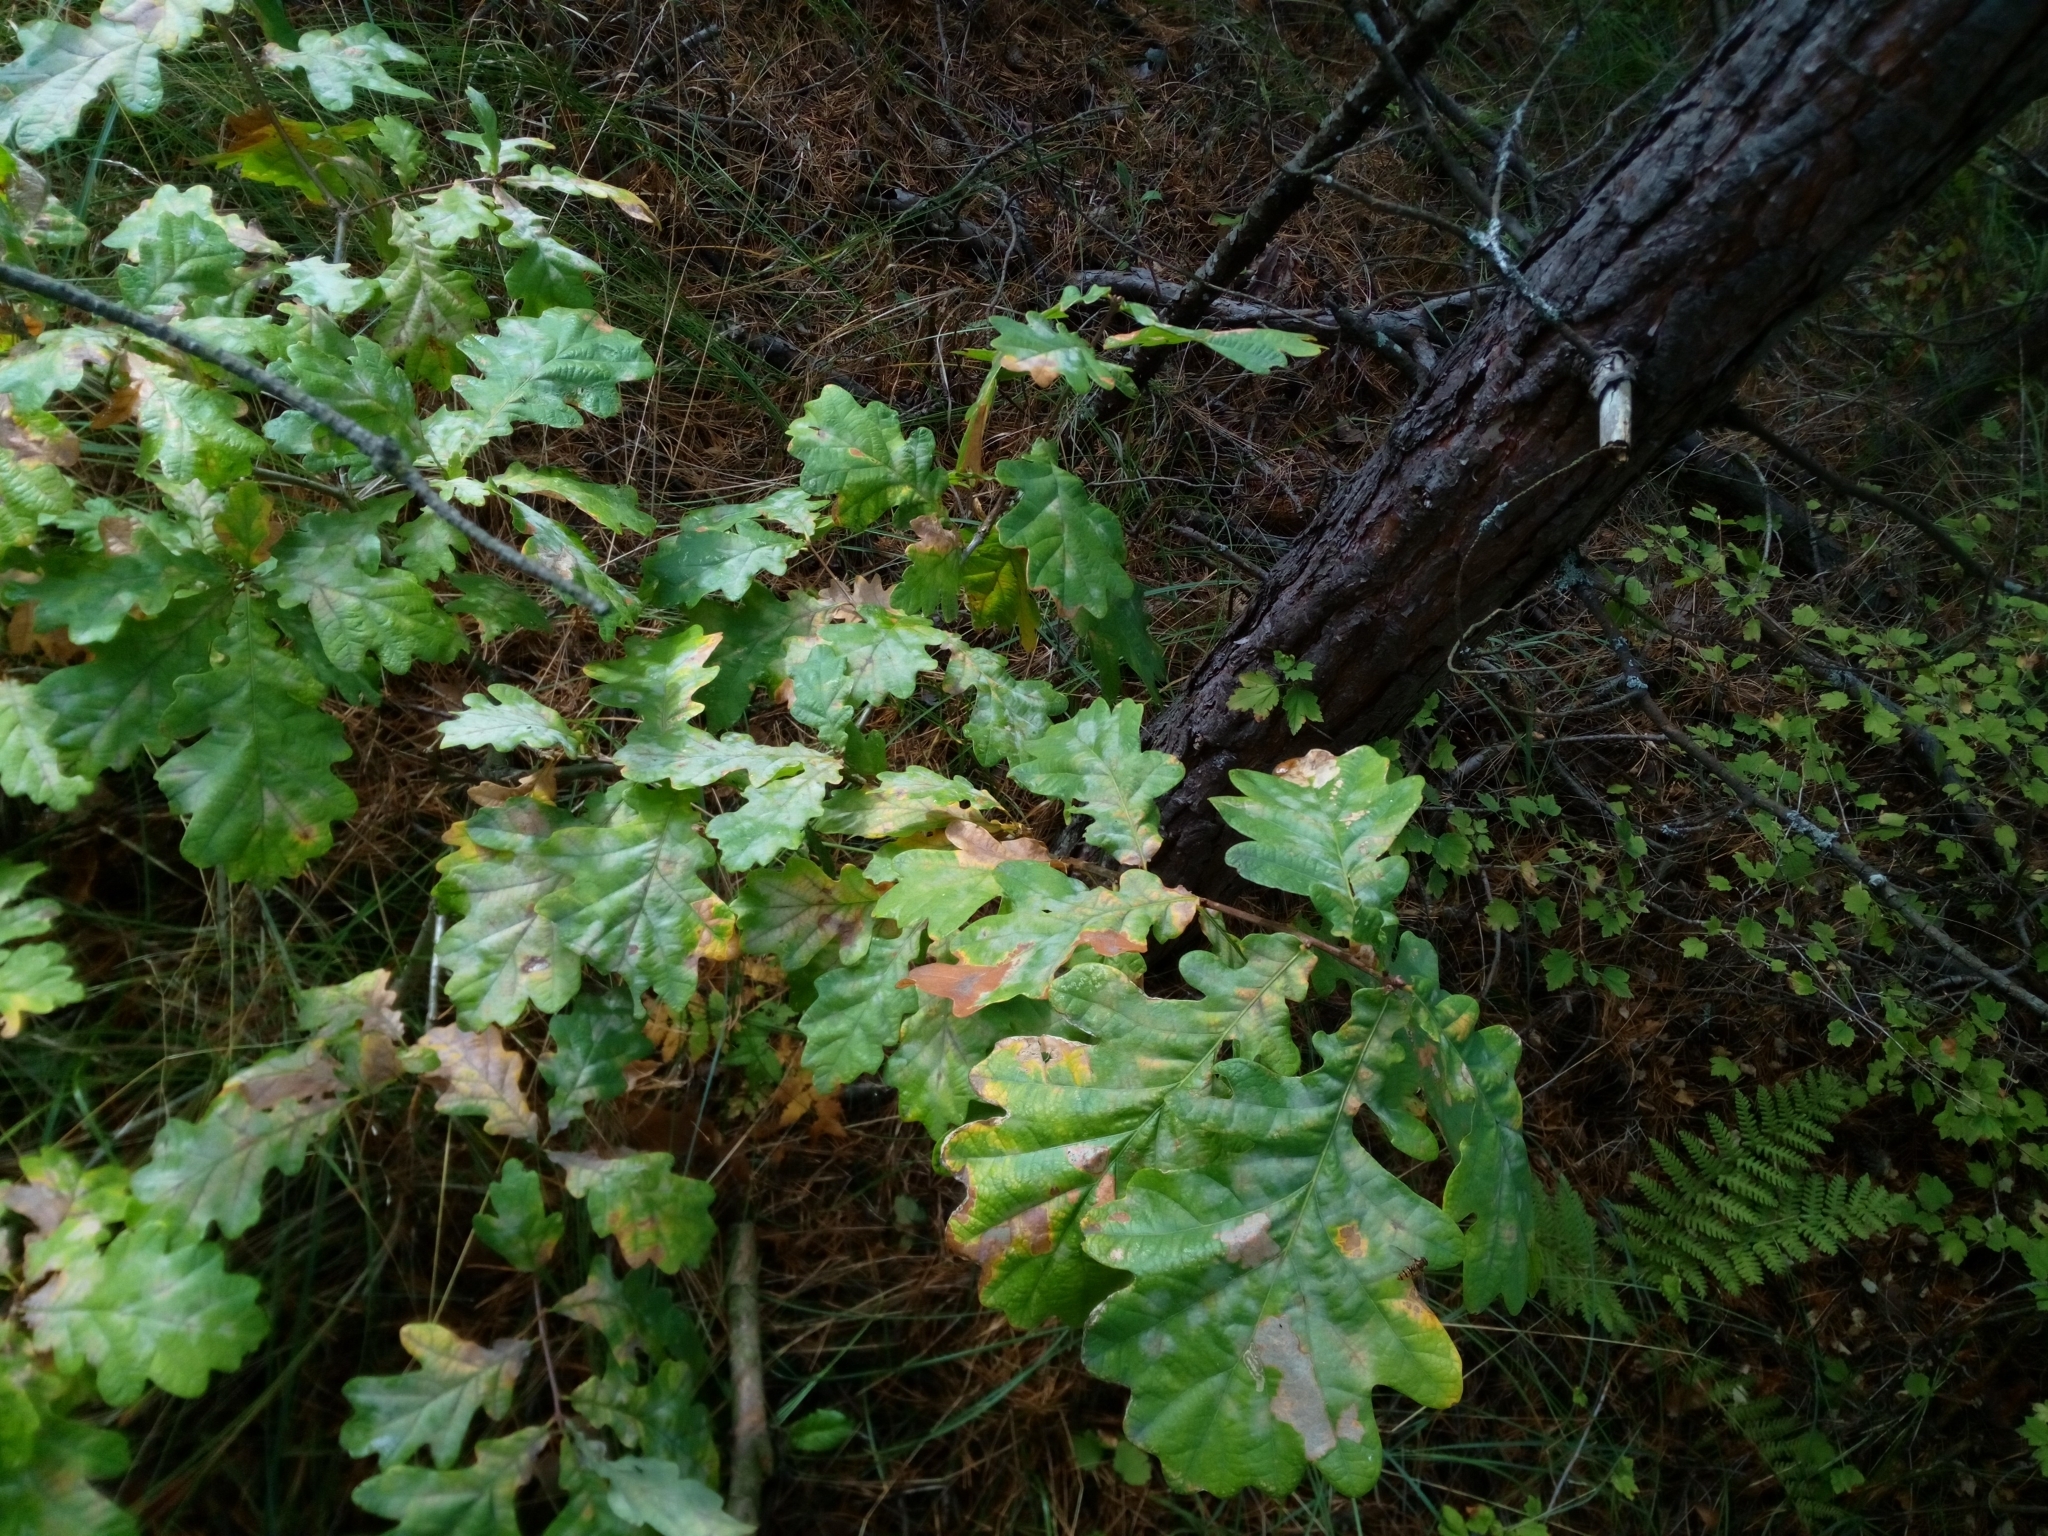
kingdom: Plantae
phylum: Tracheophyta
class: Magnoliopsida
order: Fagales
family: Fagaceae
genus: Quercus
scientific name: Quercus robur
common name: Pedunculate oak
